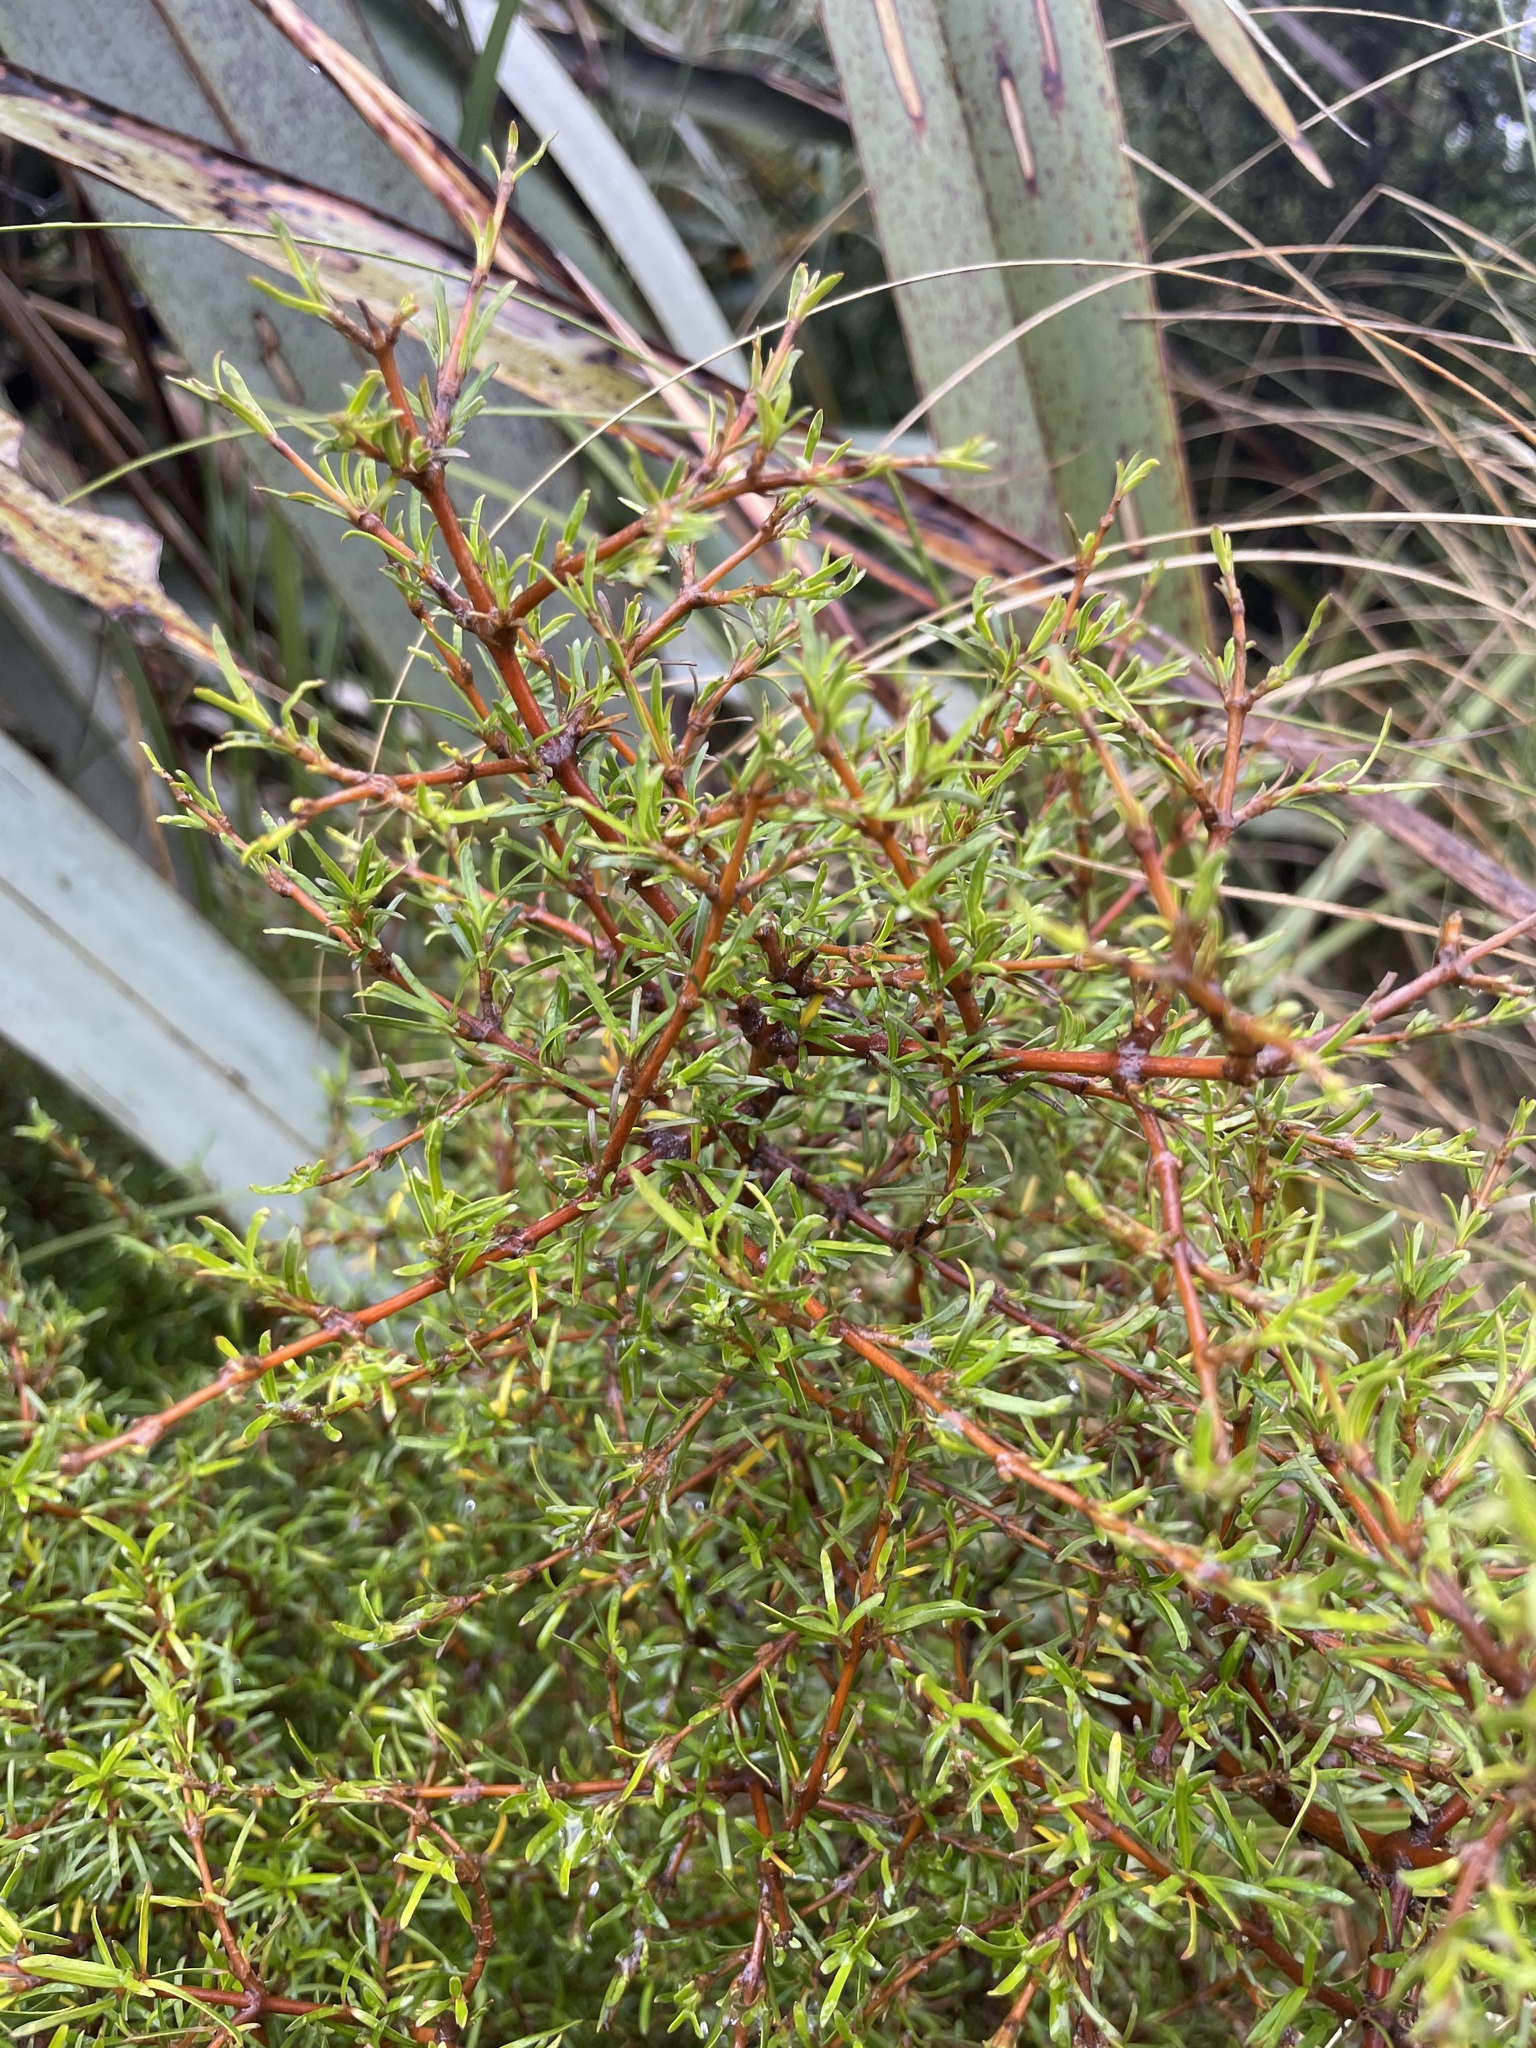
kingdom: Plantae
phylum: Tracheophyta
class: Magnoliopsida
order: Gentianales
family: Rubiaceae
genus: Coprosma
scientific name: Coprosma rugosa
